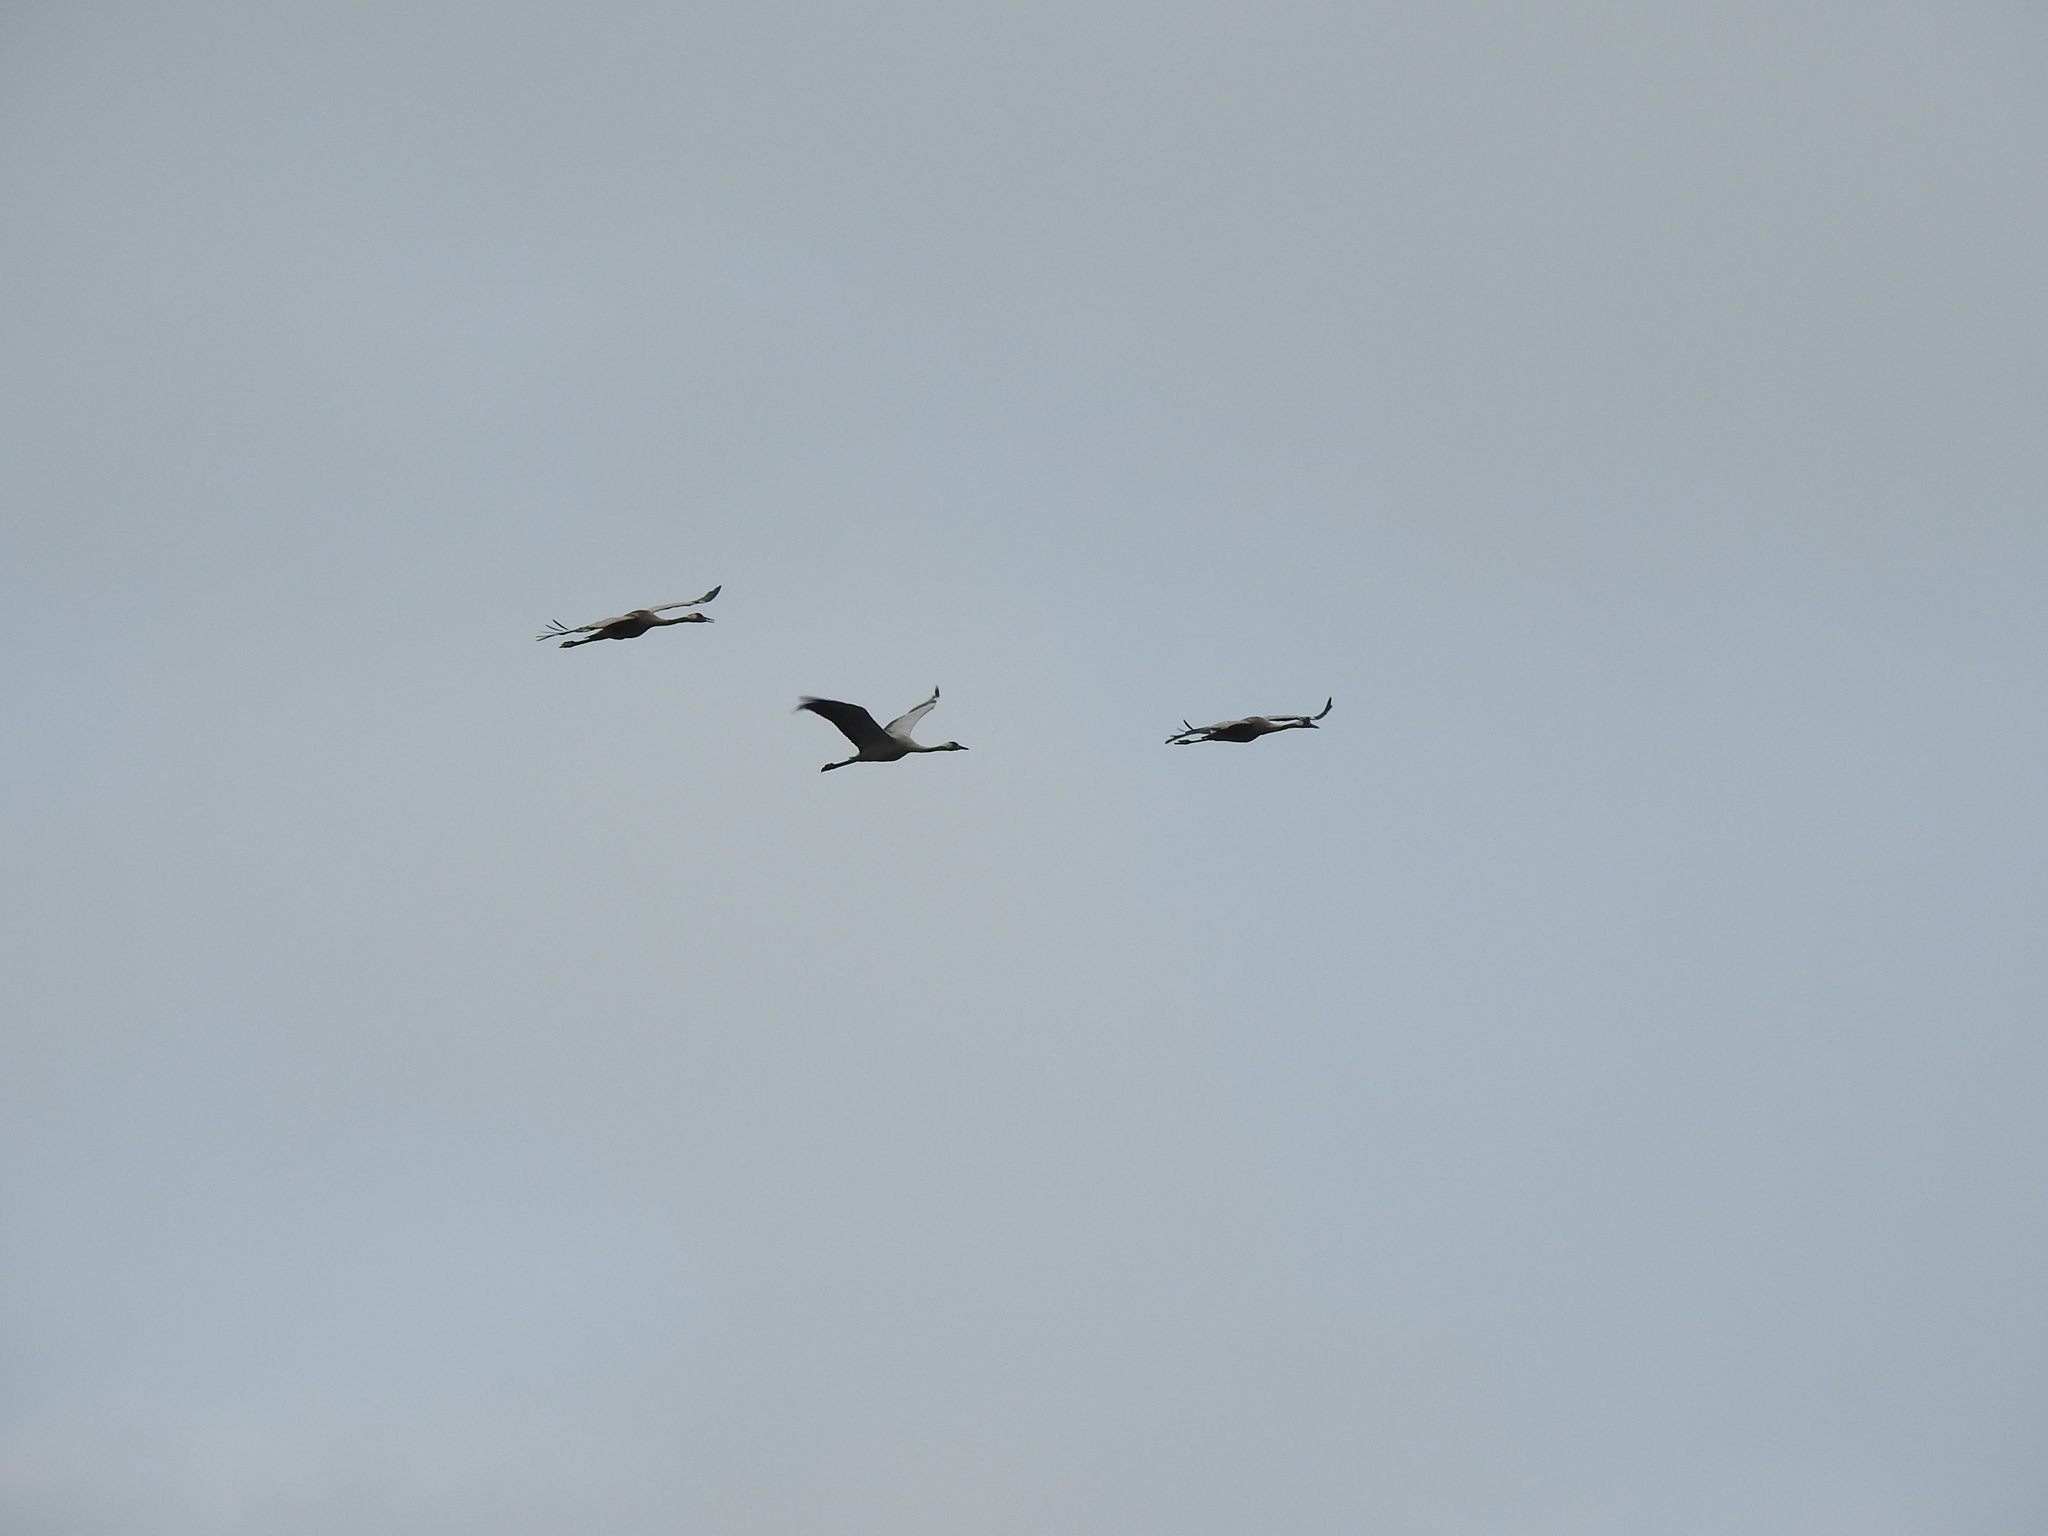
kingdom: Animalia
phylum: Chordata
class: Aves
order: Gruiformes
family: Gruidae
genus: Grus
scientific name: Grus grus
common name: Common crane
